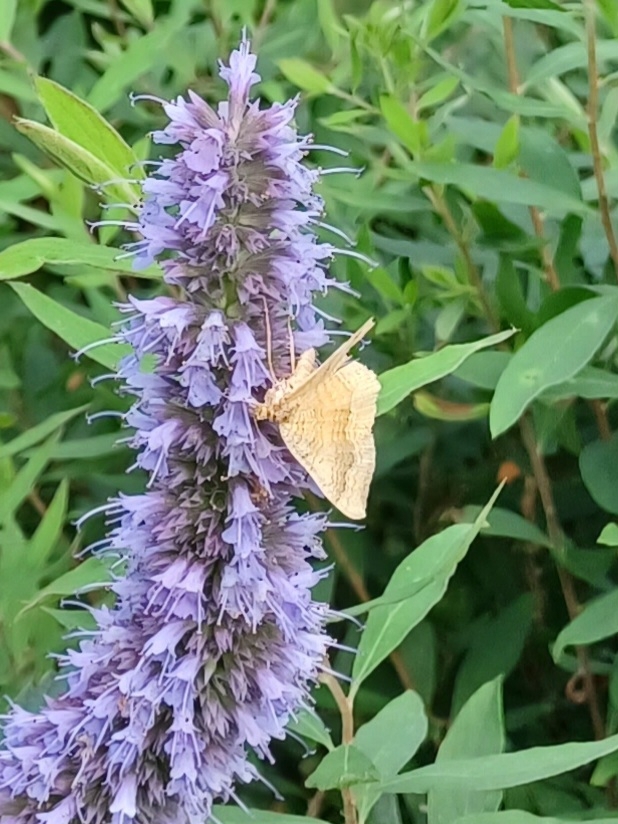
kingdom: Animalia
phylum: Arthropoda
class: Insecta
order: Lepidoptera
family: Geometridae
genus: Camptogramma
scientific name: Camptogramma bilineata
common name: Yellow shell
